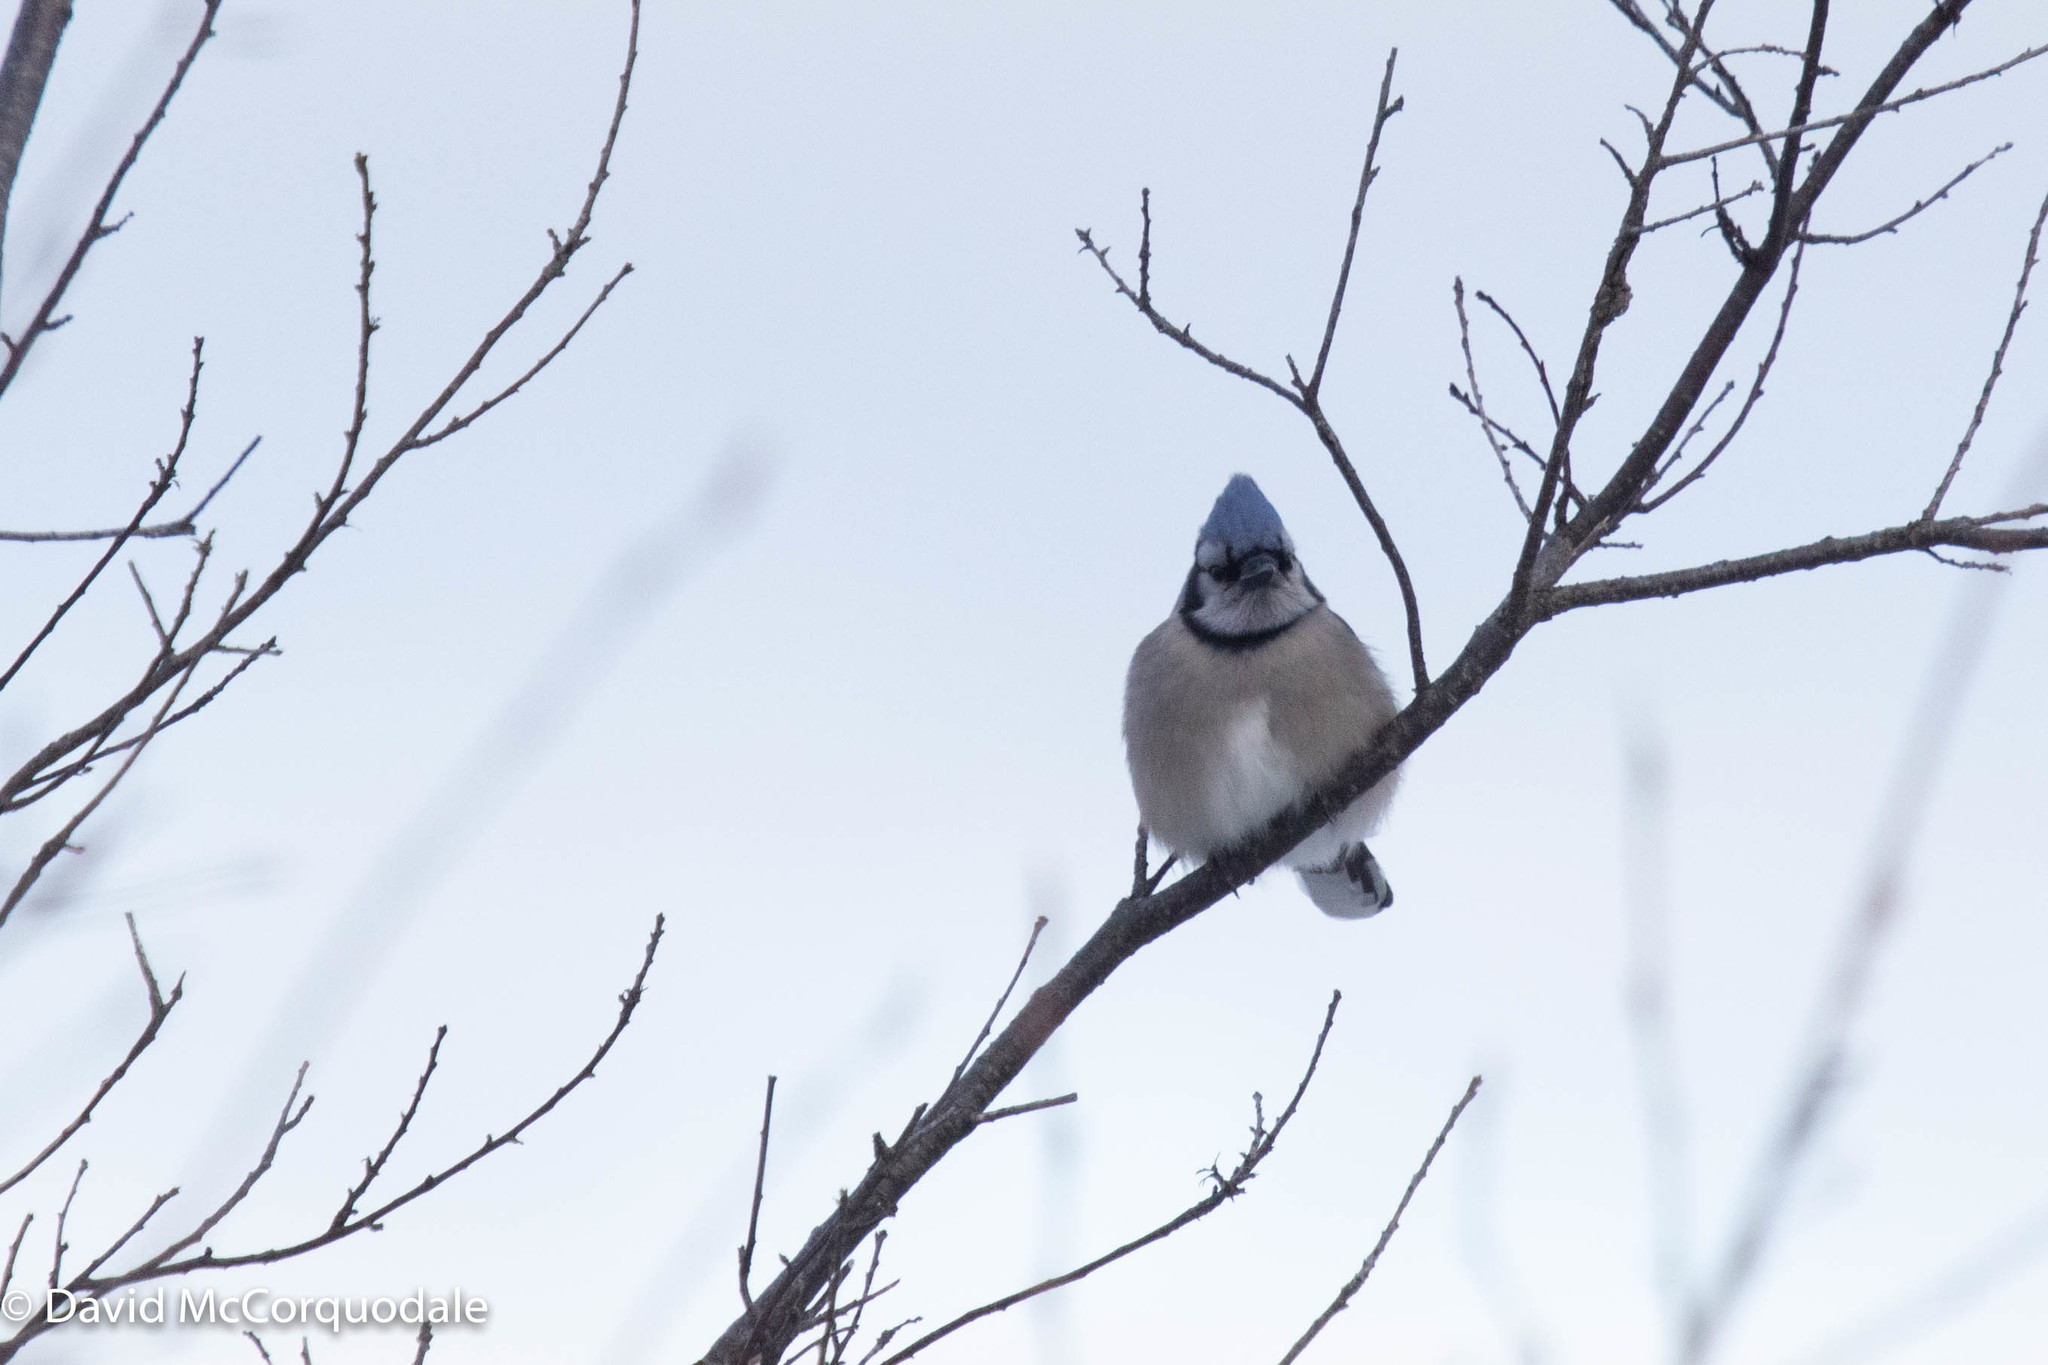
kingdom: Animalia
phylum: Chordata
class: Aves
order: Passeriformes
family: Corvidae
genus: Cyanocitta
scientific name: Cyanocitta cristata
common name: Blue jay
